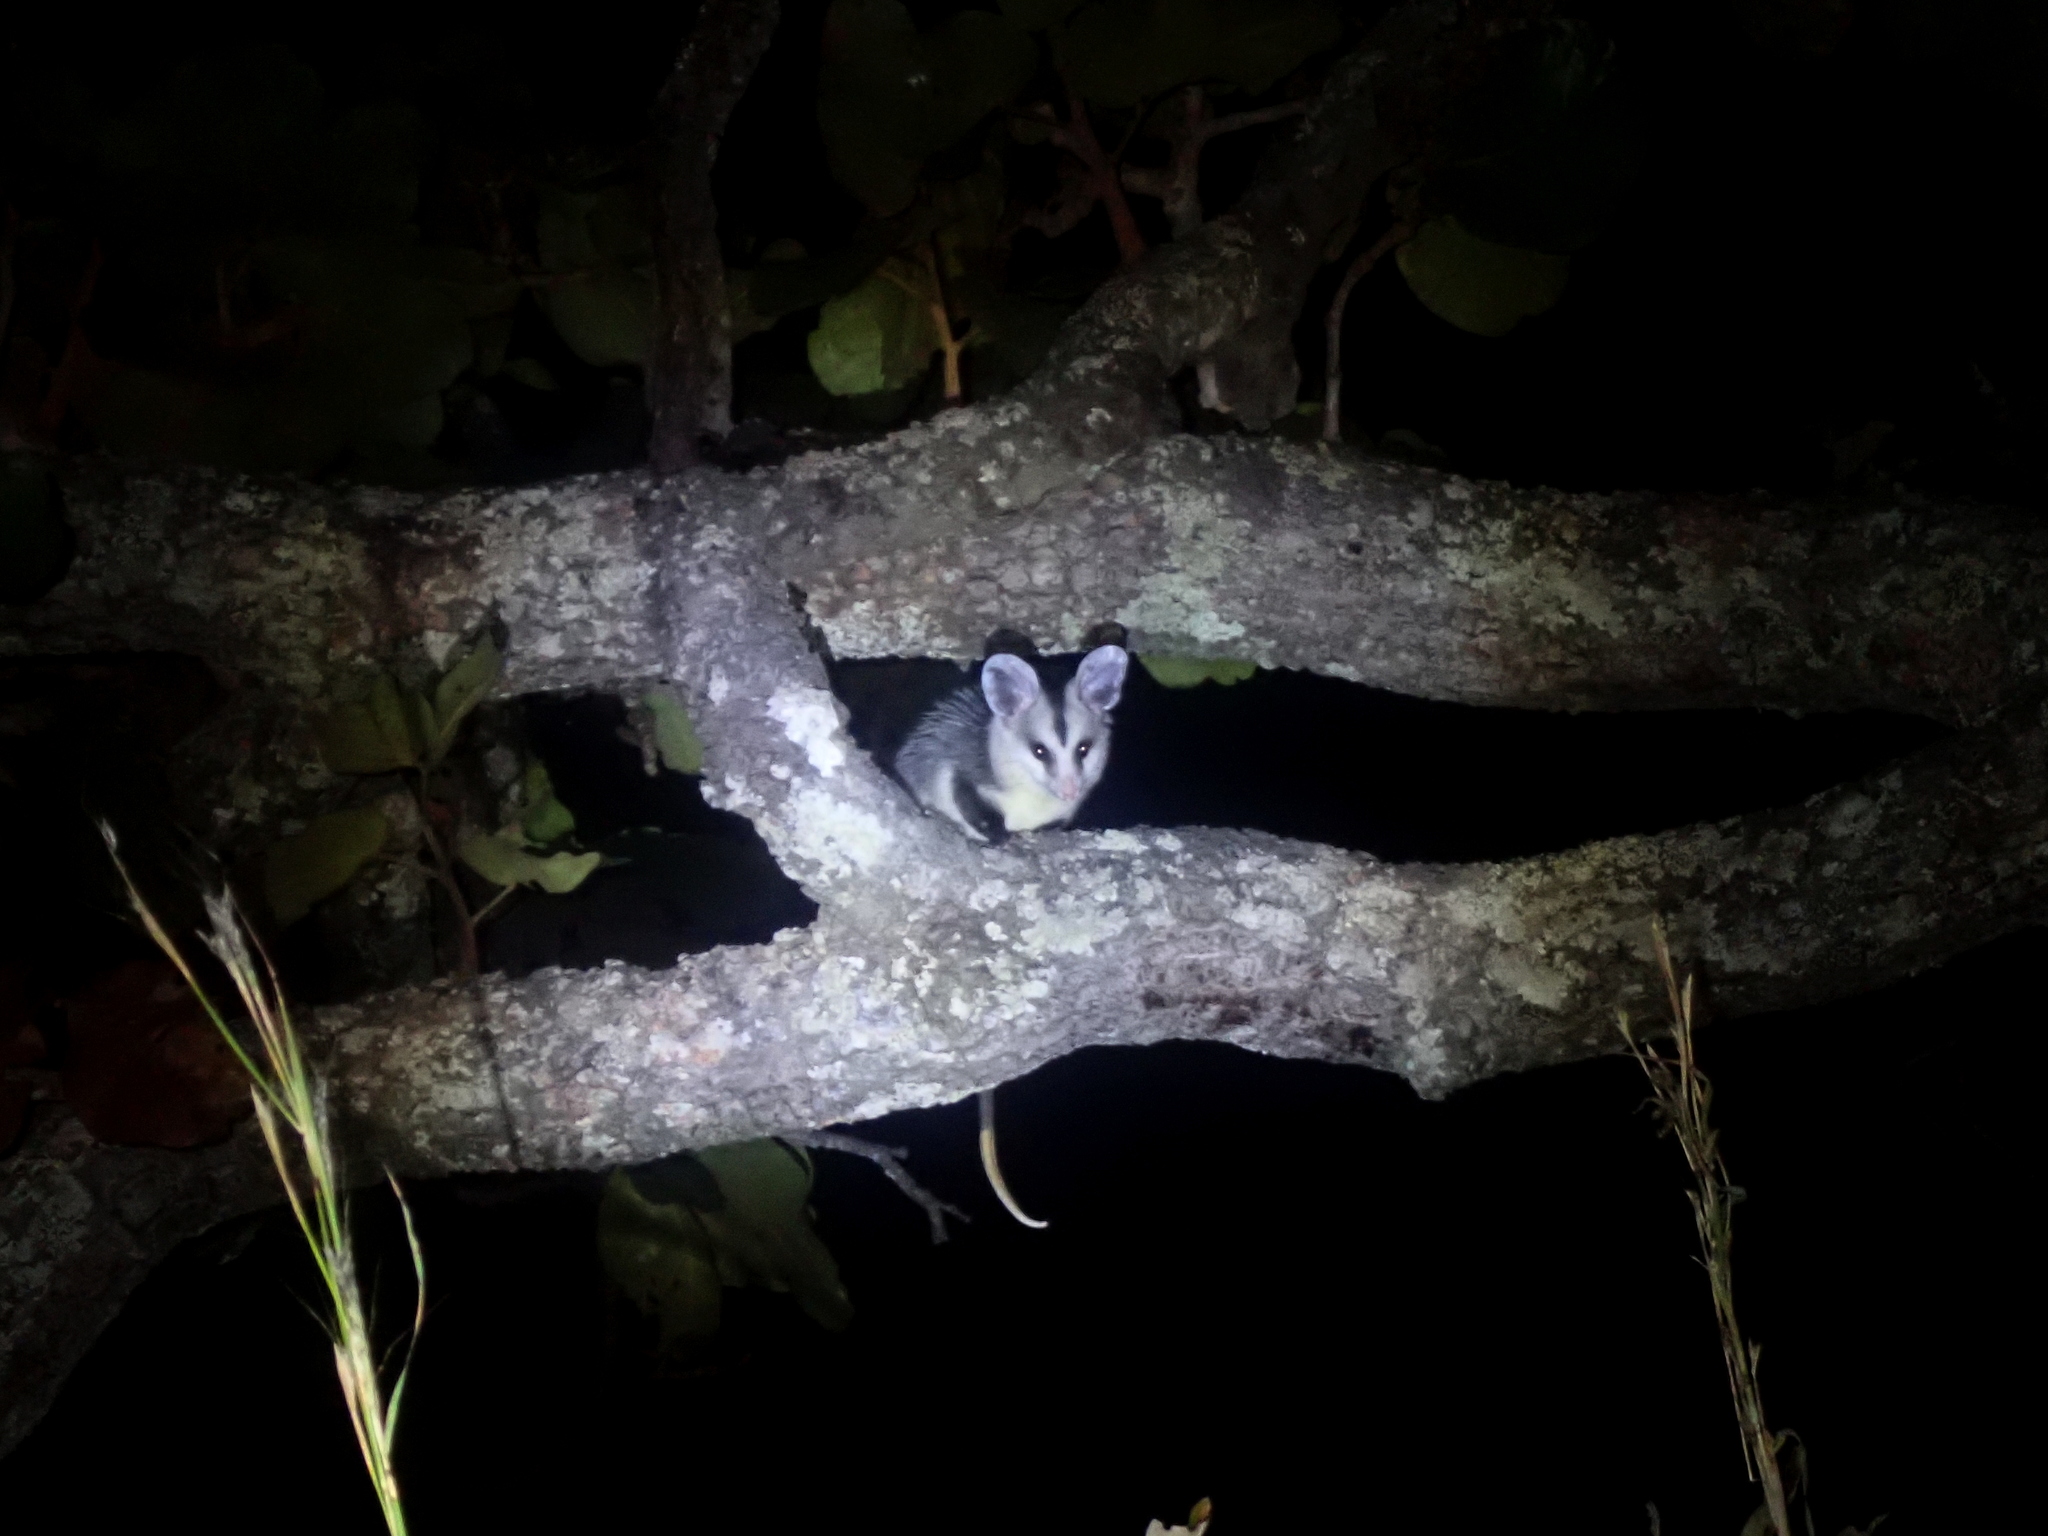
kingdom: Animalia
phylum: Chordata
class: Mammalia
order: Didelphimorphia
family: Didelphidae
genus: Didelphis
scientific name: Didelphis albiventris
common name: White-eared opossum
